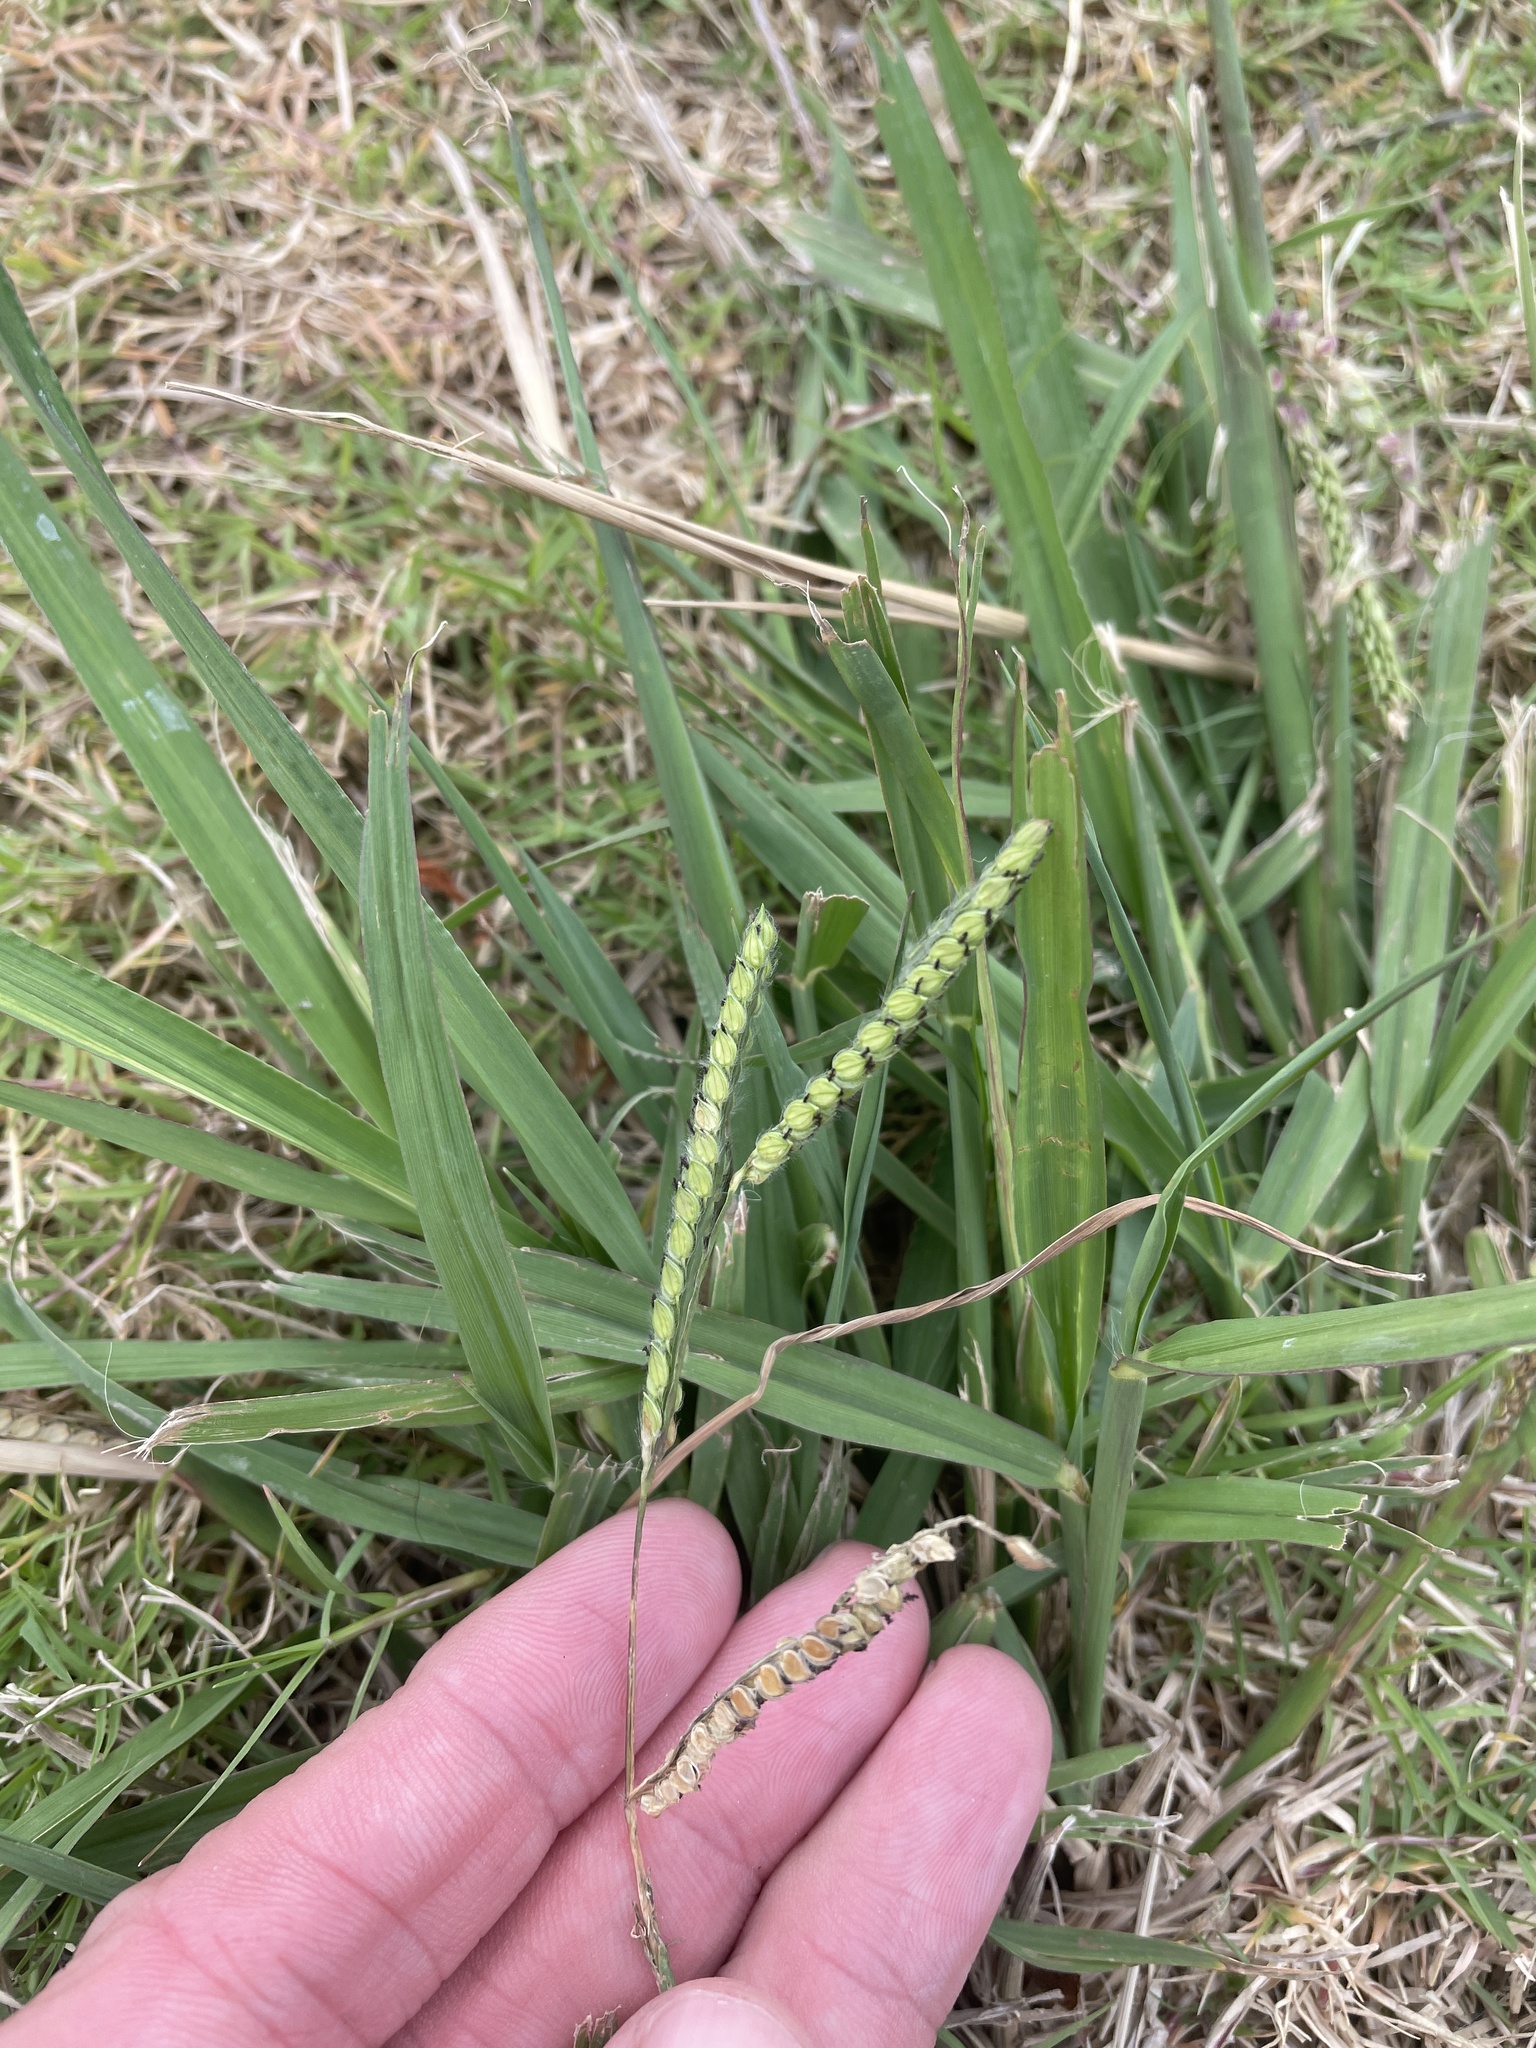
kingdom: Plantae
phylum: Tracheophyta
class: Liliopsida
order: Poales
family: Poaceae
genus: Paspalum
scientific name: Paspalum dilatatum
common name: Dallisgrass
